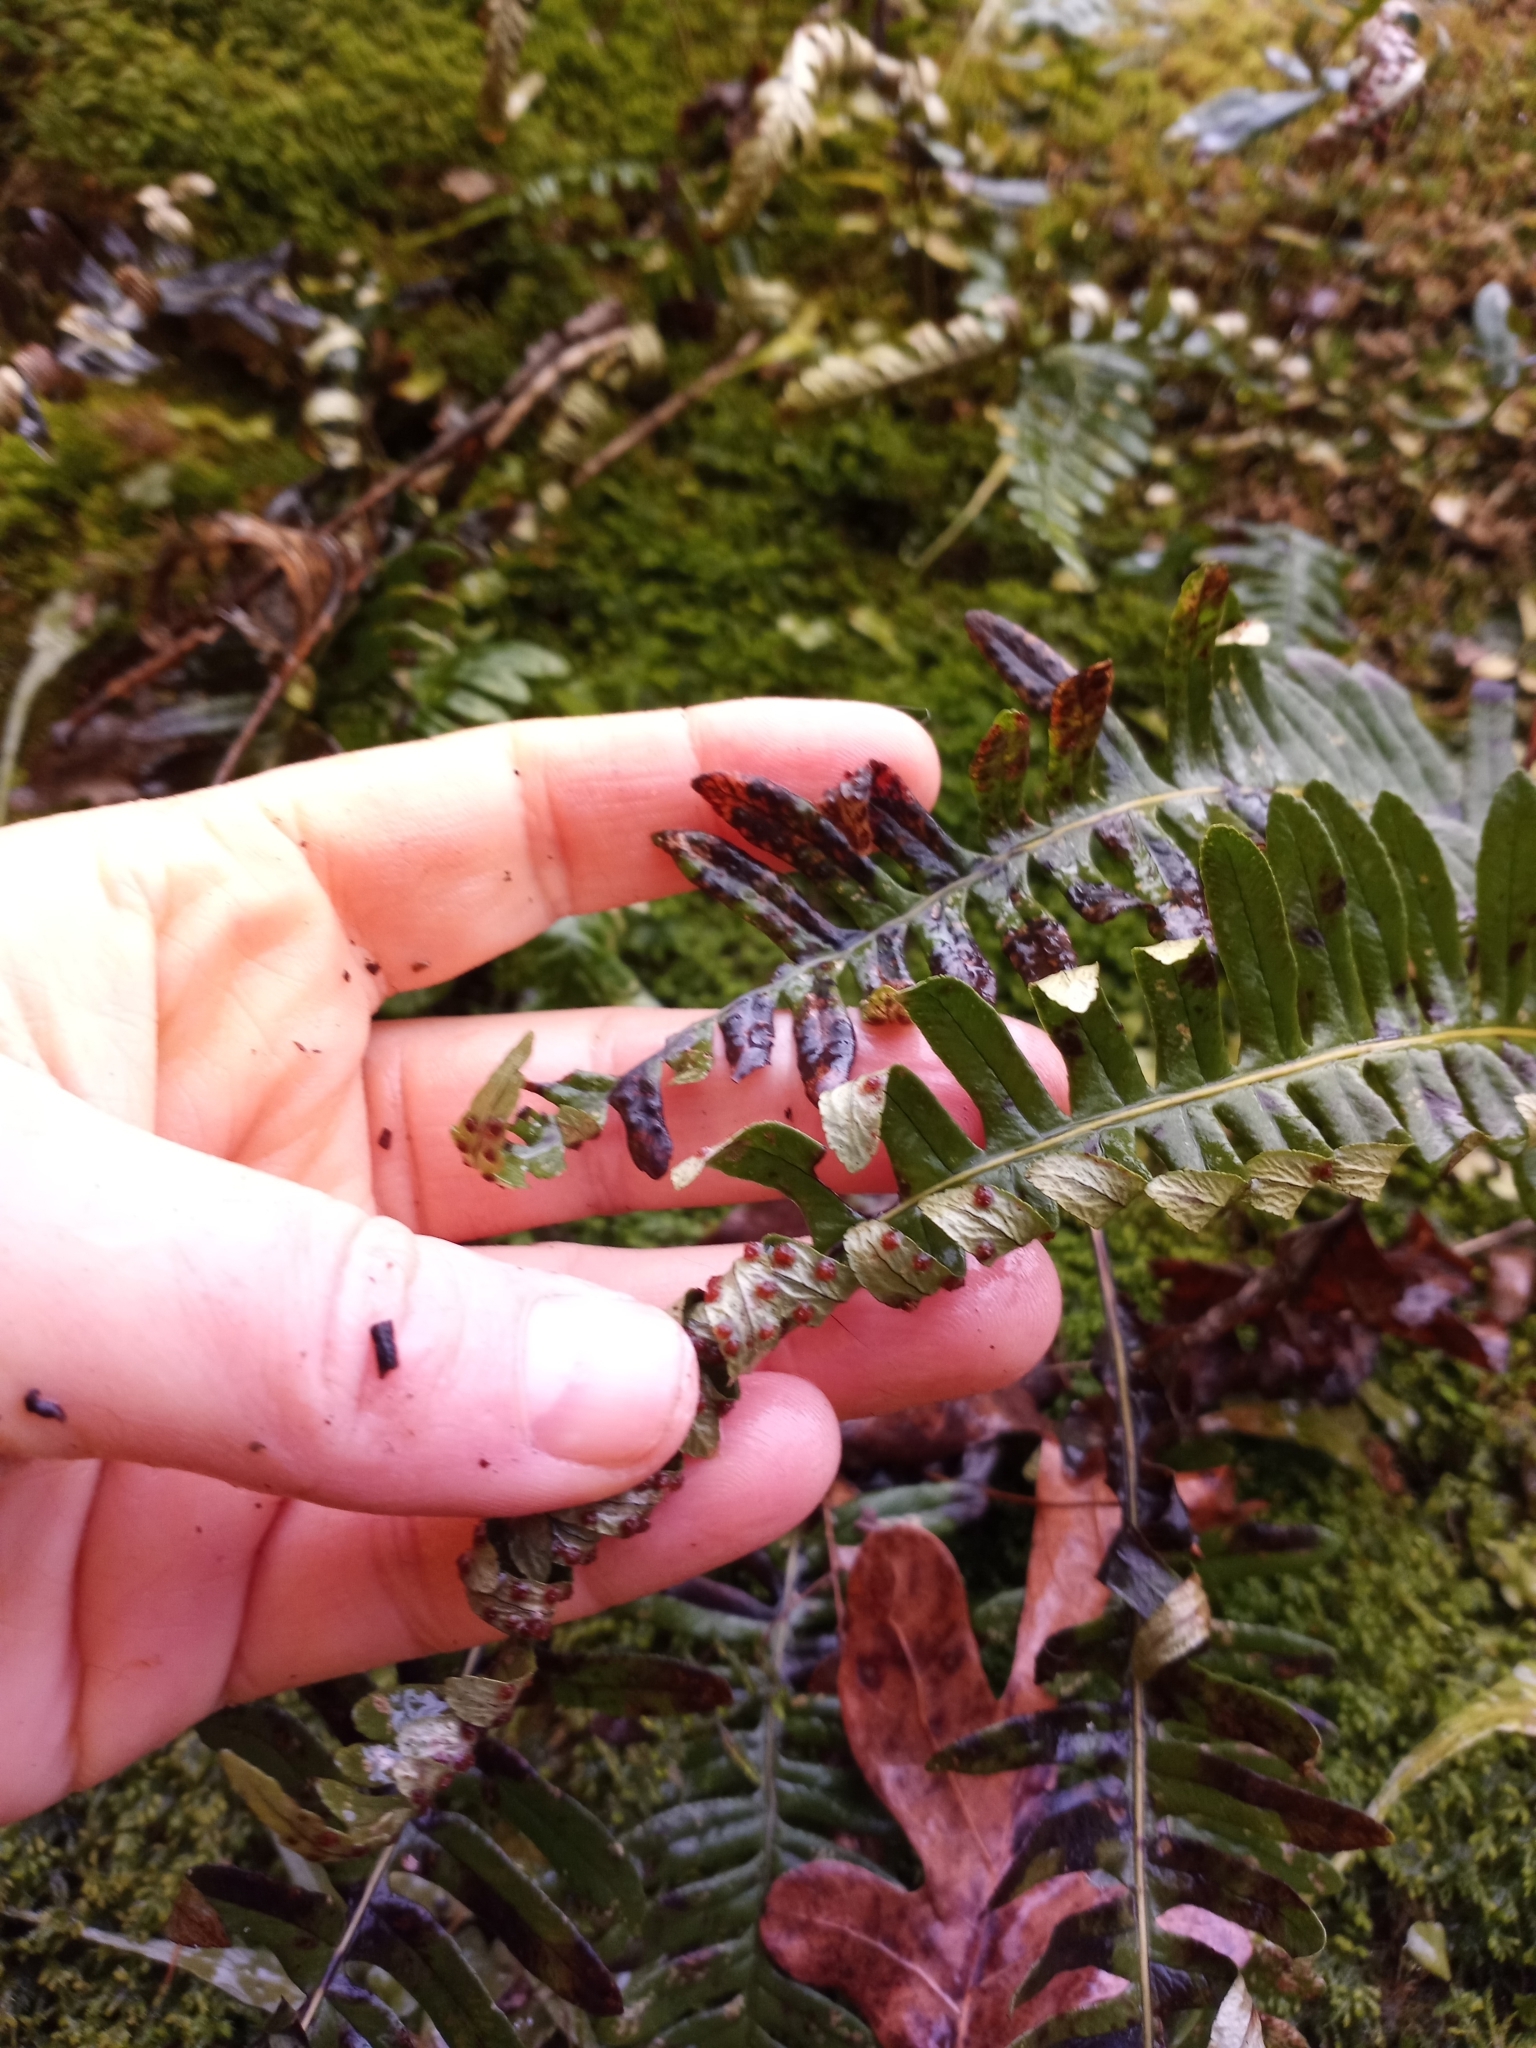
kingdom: Plantae
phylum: Tracheophyta
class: Polypodiopsida
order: Polypodiales
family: Polypodiaceae
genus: Polypodium
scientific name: Polypodium virginianum
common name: American wall fern
